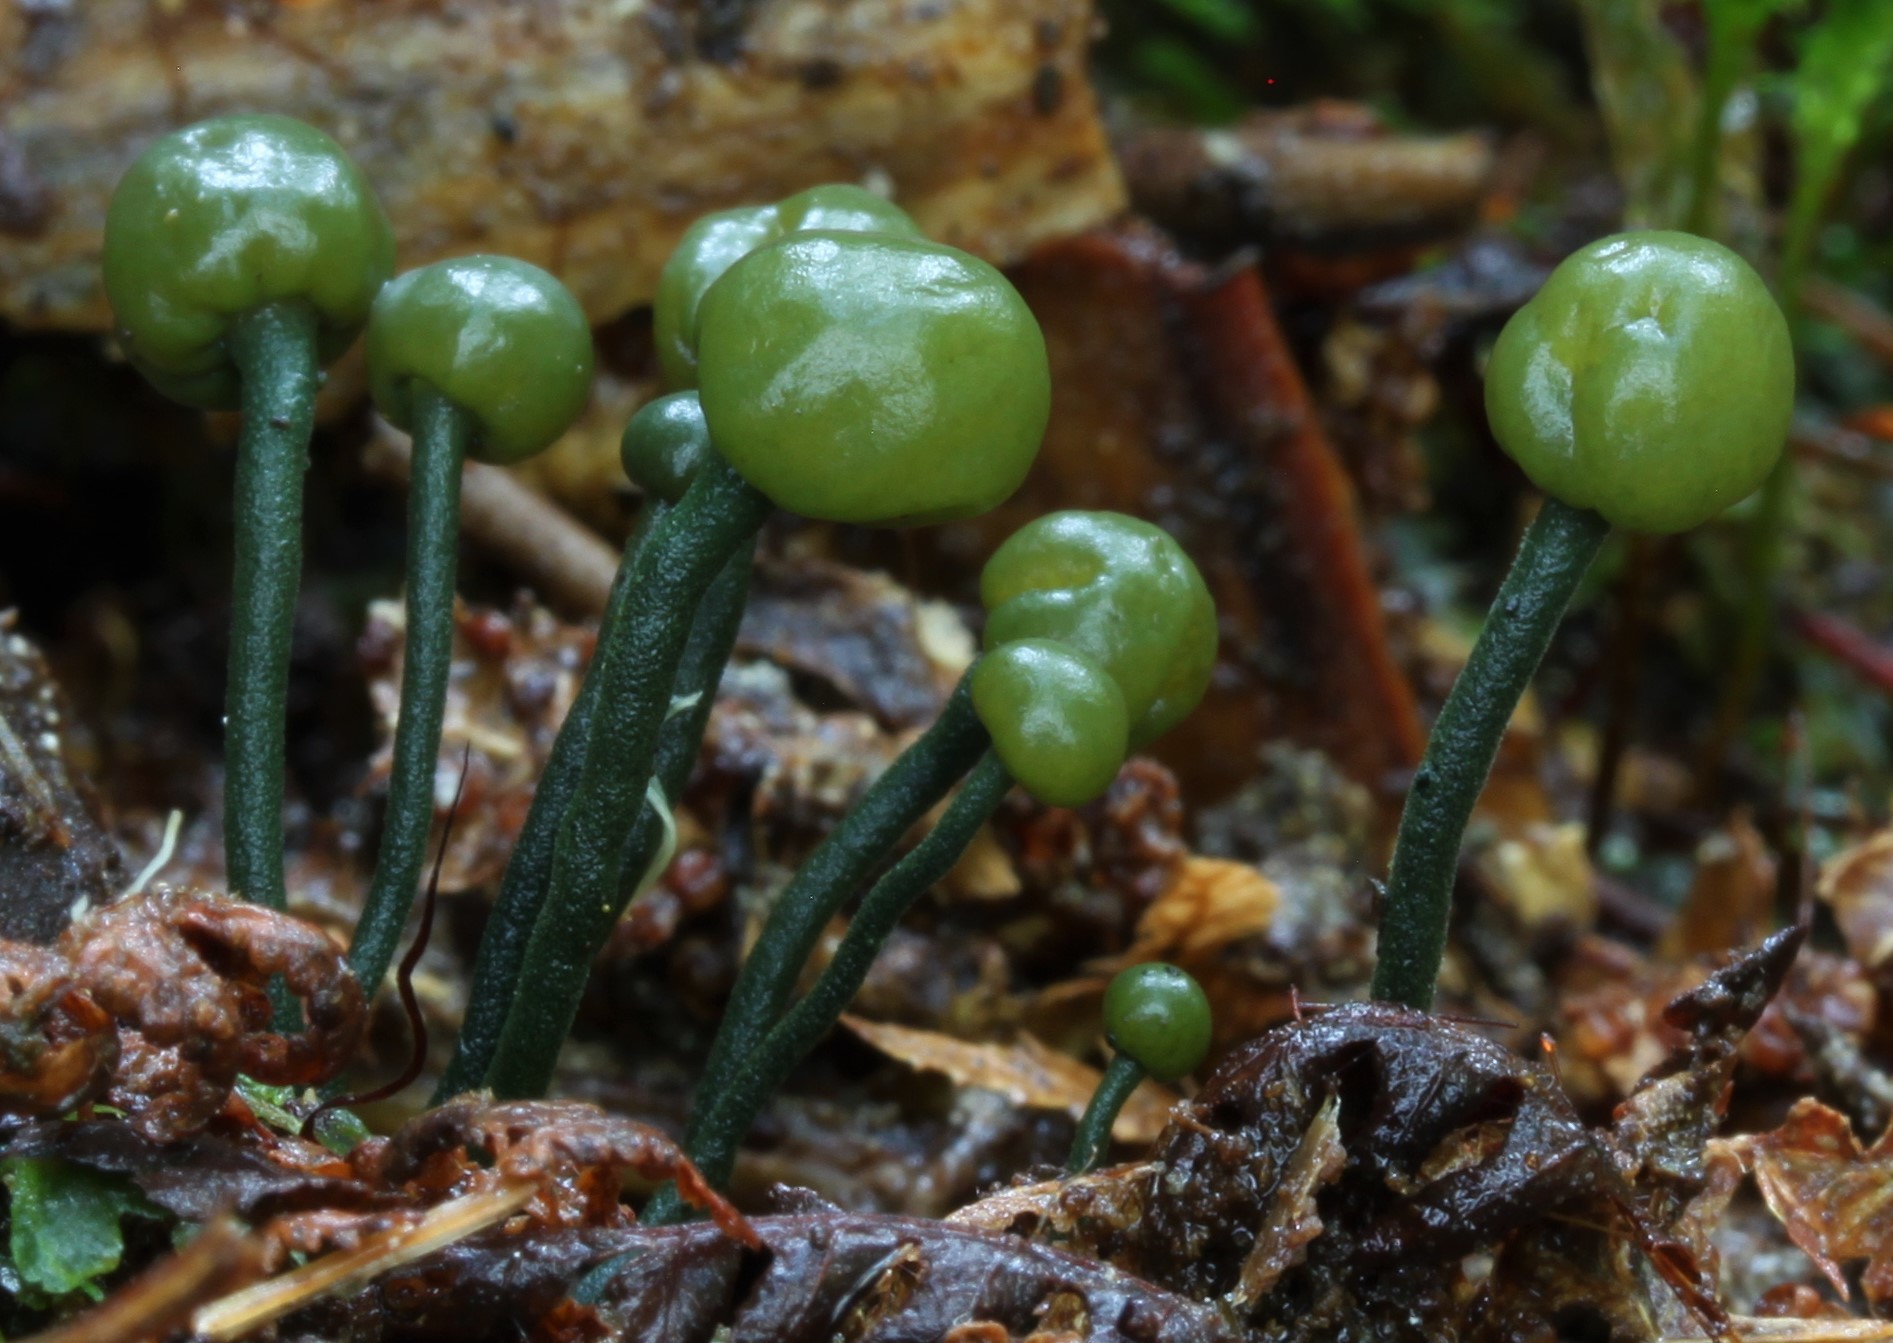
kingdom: Fungi
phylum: Ascomycota
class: Leotiomycetes
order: Helotiales
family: Vibrisseaceae
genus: Chlorovibrissea
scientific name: Chlorovibrissea melanochlora
